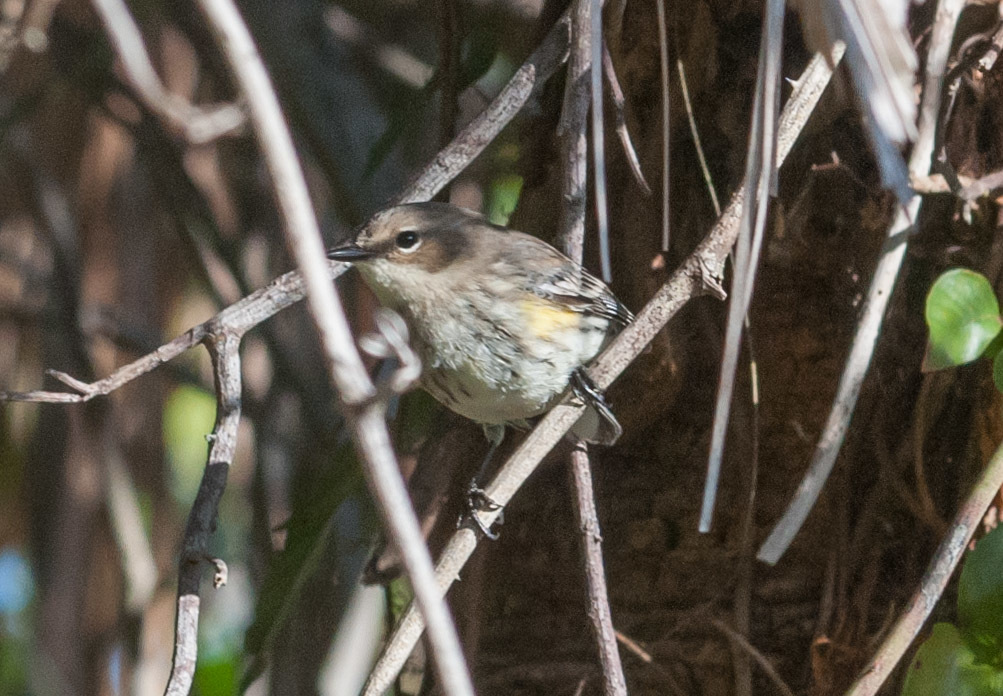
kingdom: Animalia
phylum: Chordata
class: Aves
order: Passeriformes
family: Parulidae
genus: Setophaga
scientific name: Setophaga coronata
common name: Myrtle warbler
